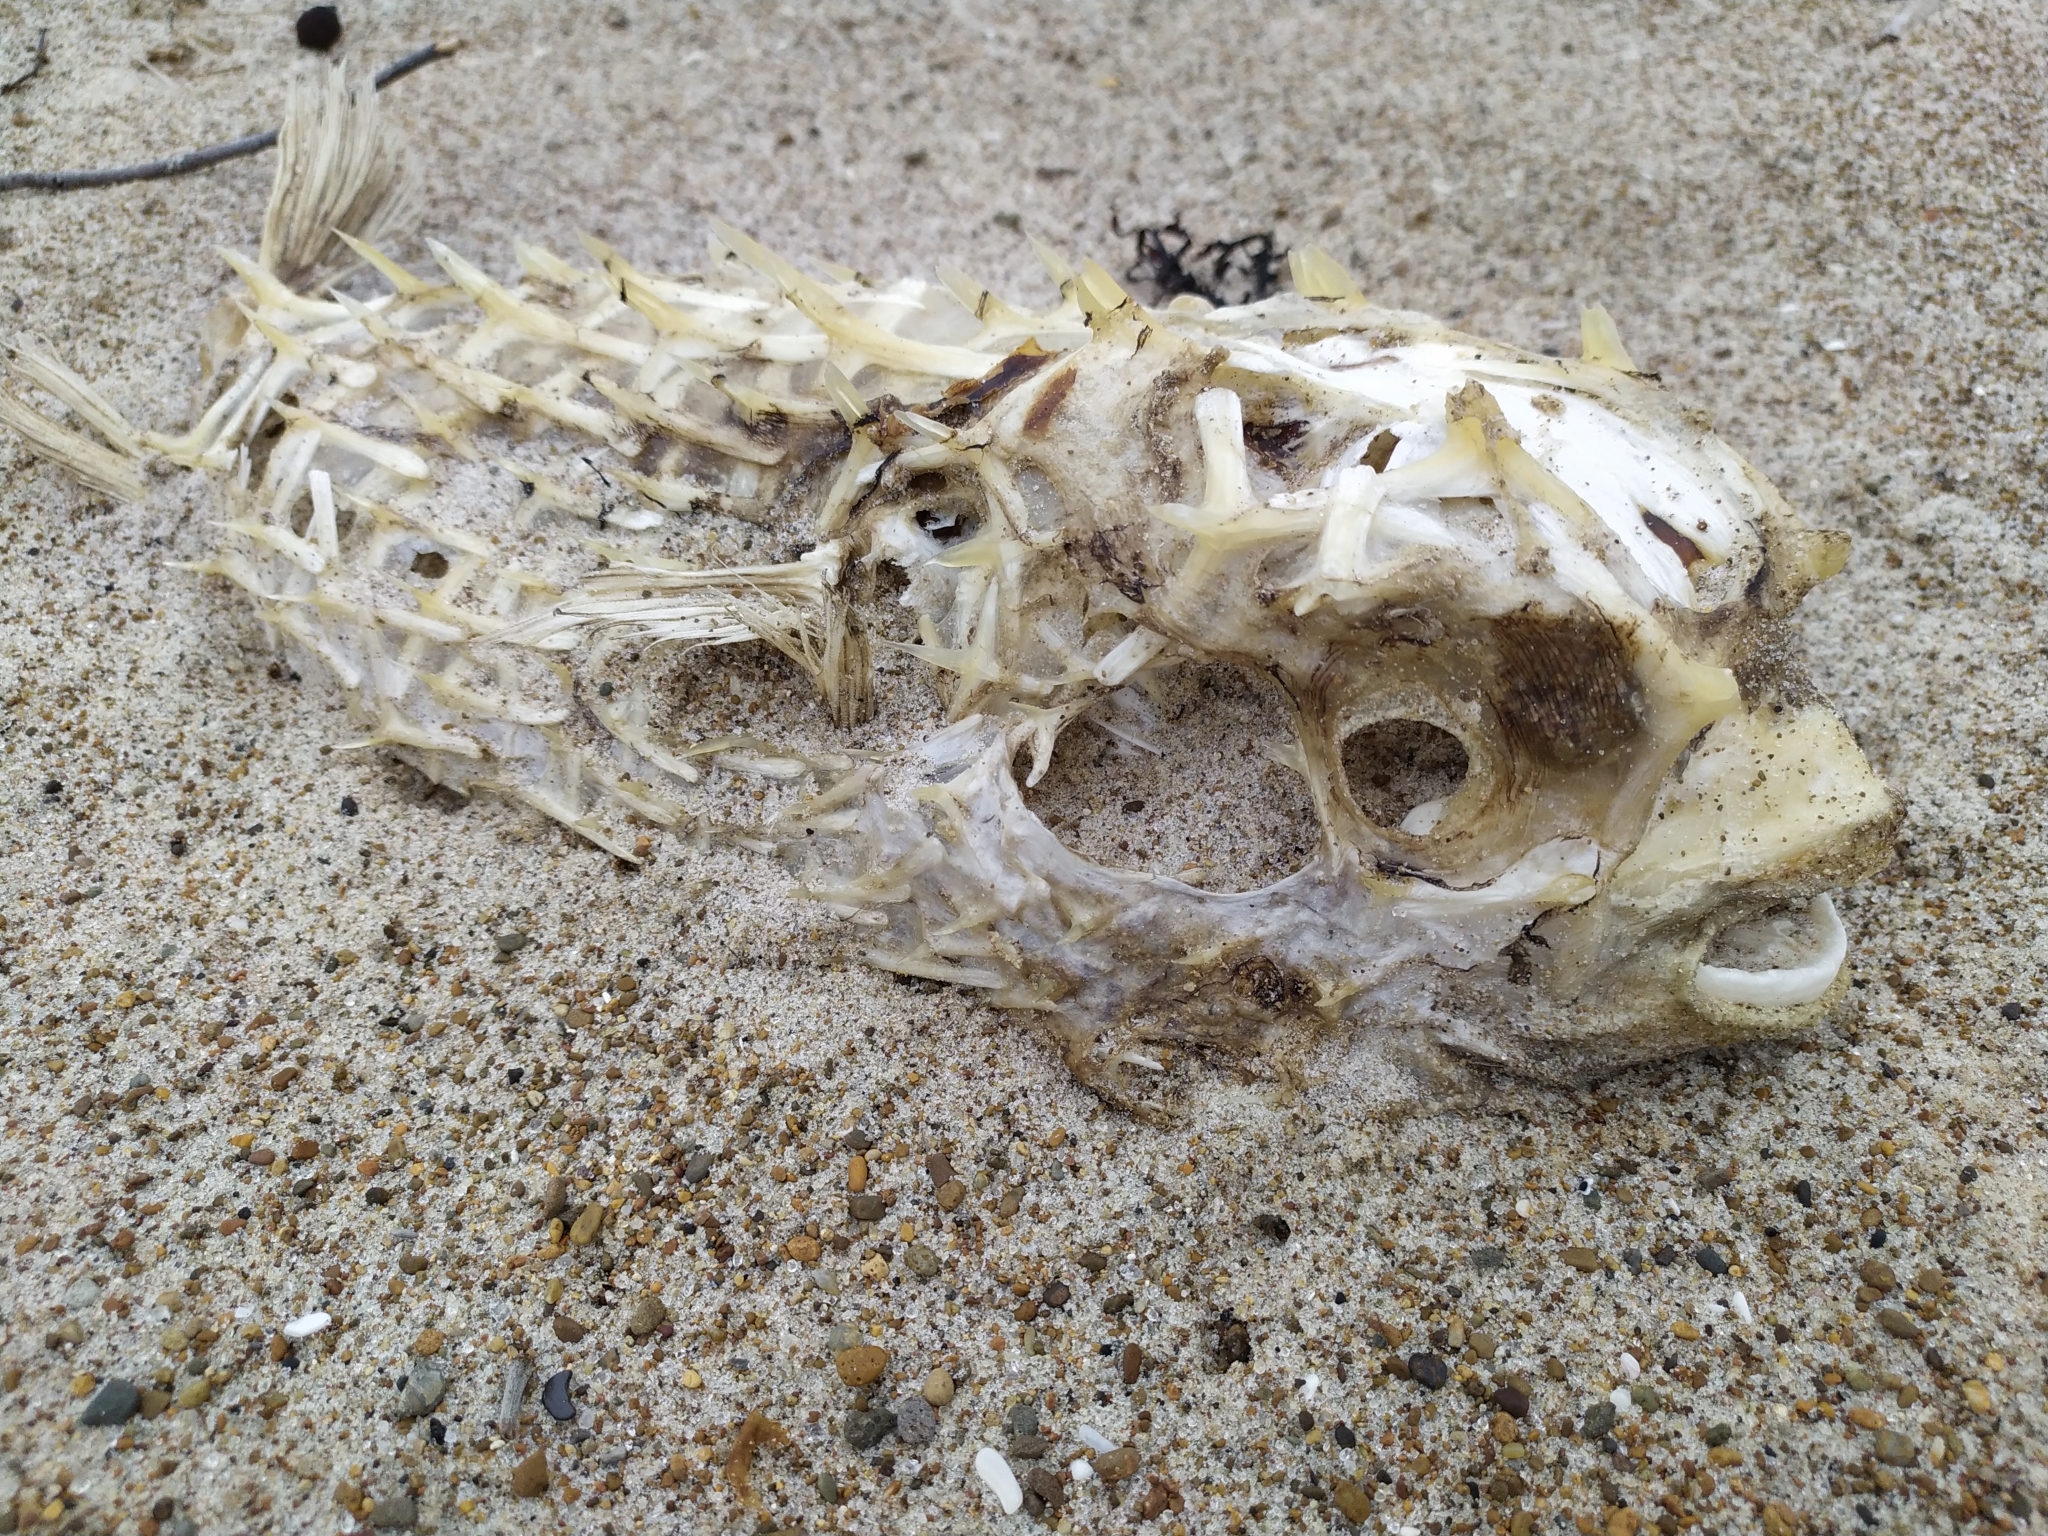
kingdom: Animalia
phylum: Chordata
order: Tetraodontiformes
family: Diodontidae
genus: Allomycterus
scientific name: Allomycterus pilatus
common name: No common name
